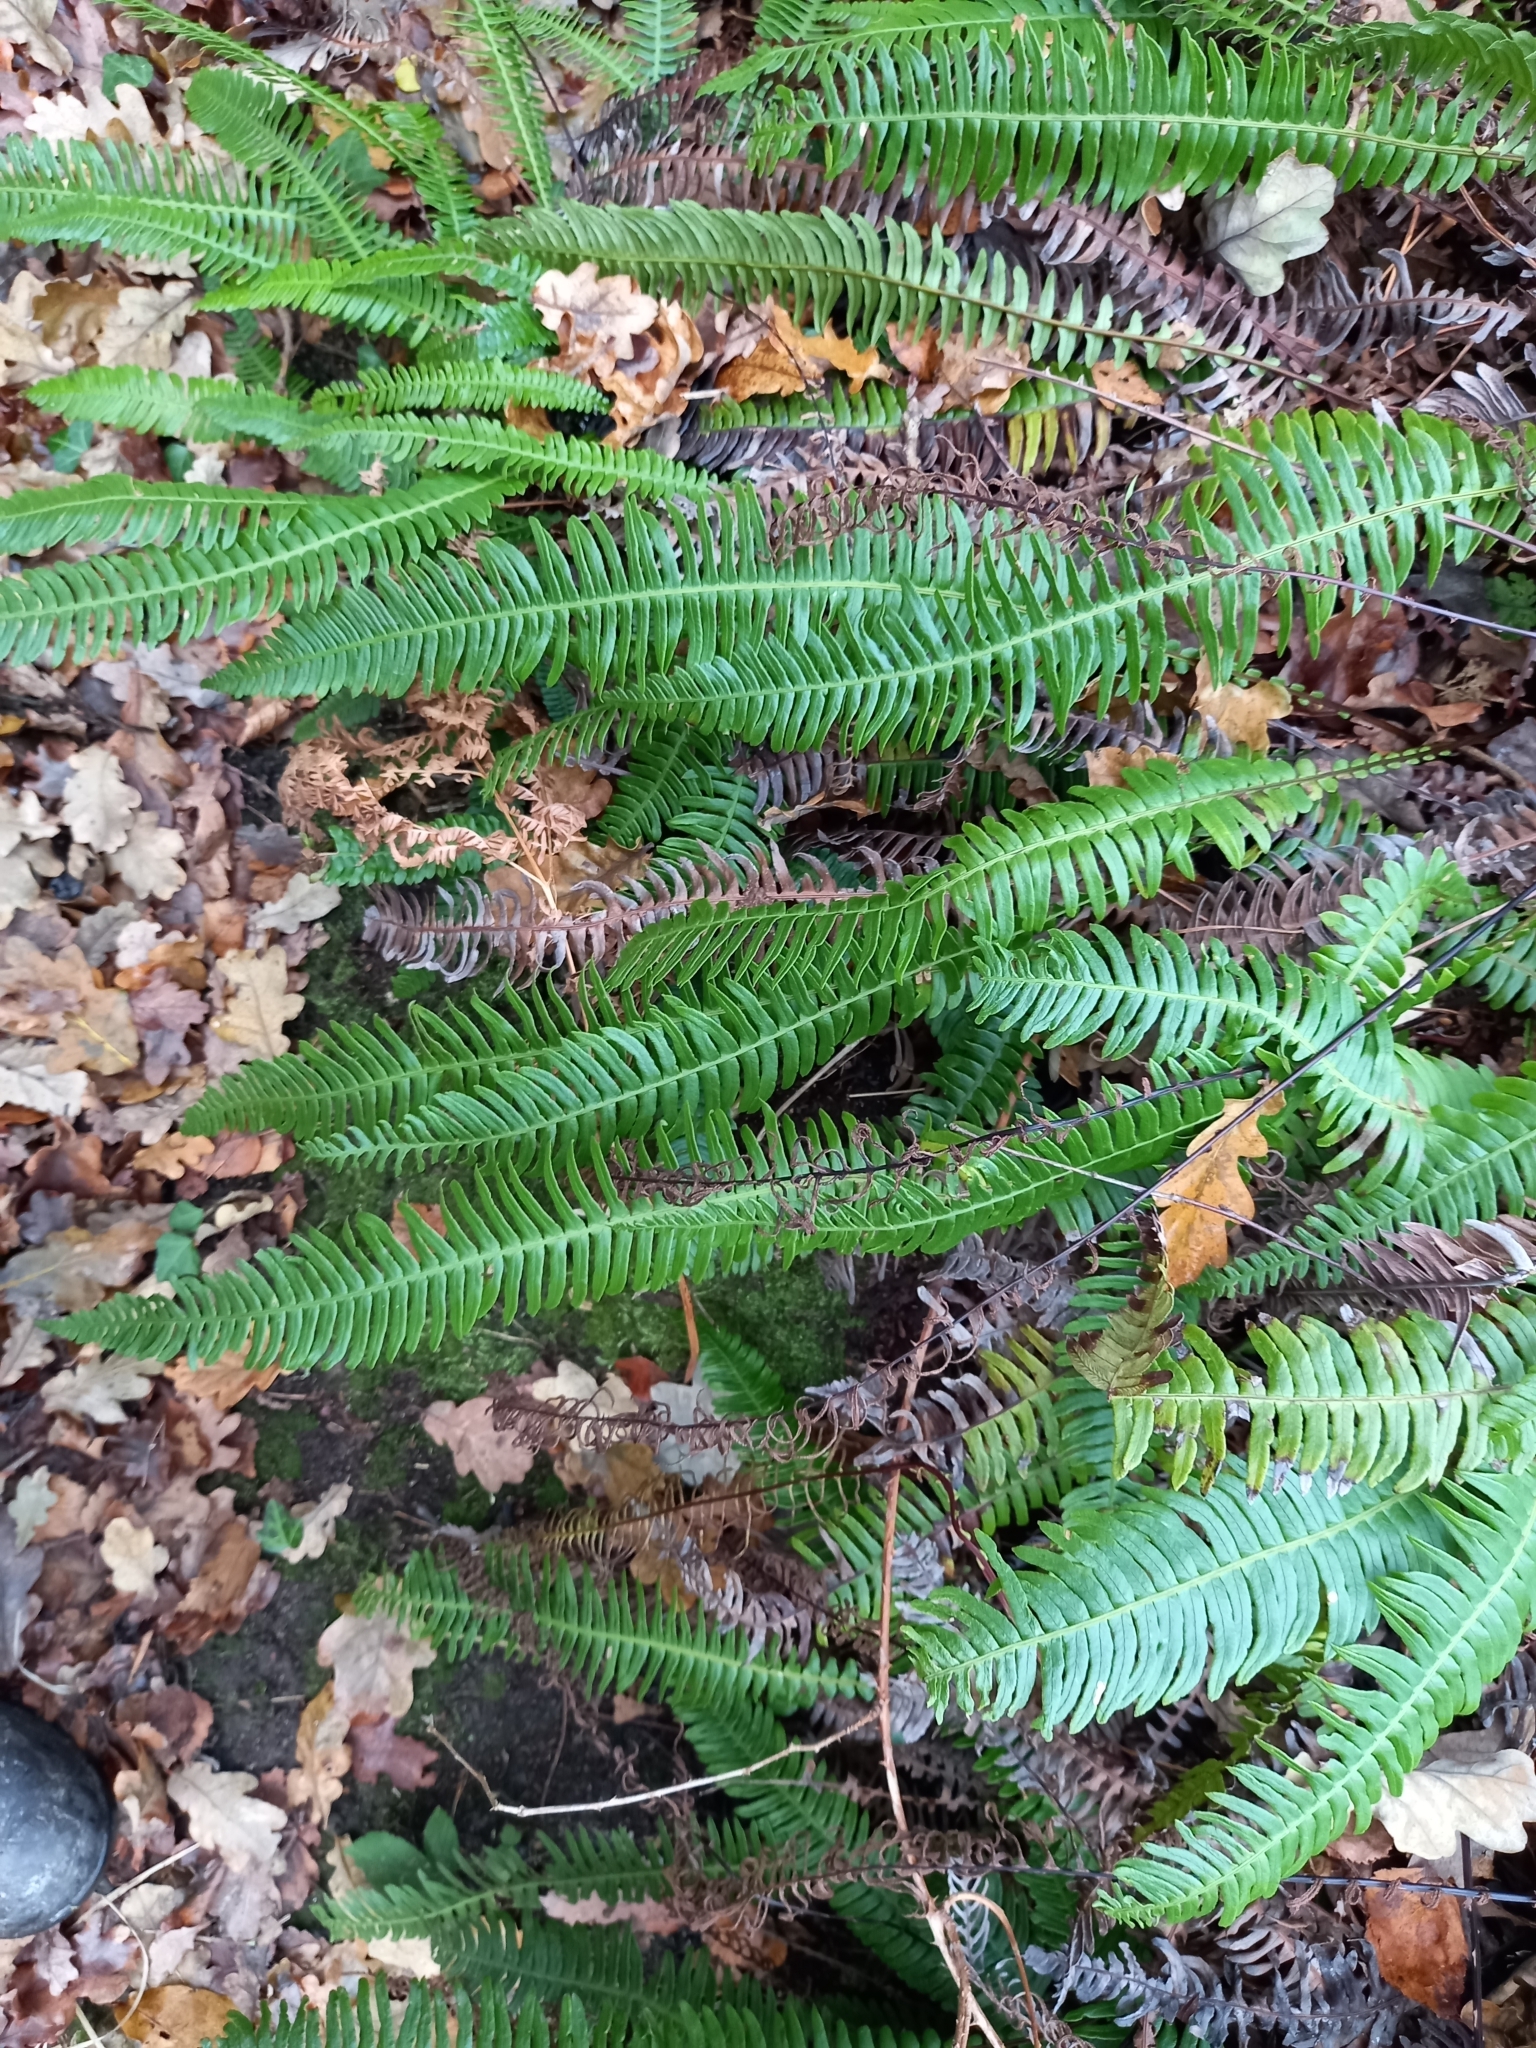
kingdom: Plantae
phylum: Tracheophyta
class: Polypodiopsida
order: Polypodiales
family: Blechnaceae
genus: Struthiopteris
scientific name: Struthiopteris spicant
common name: Deer fern
